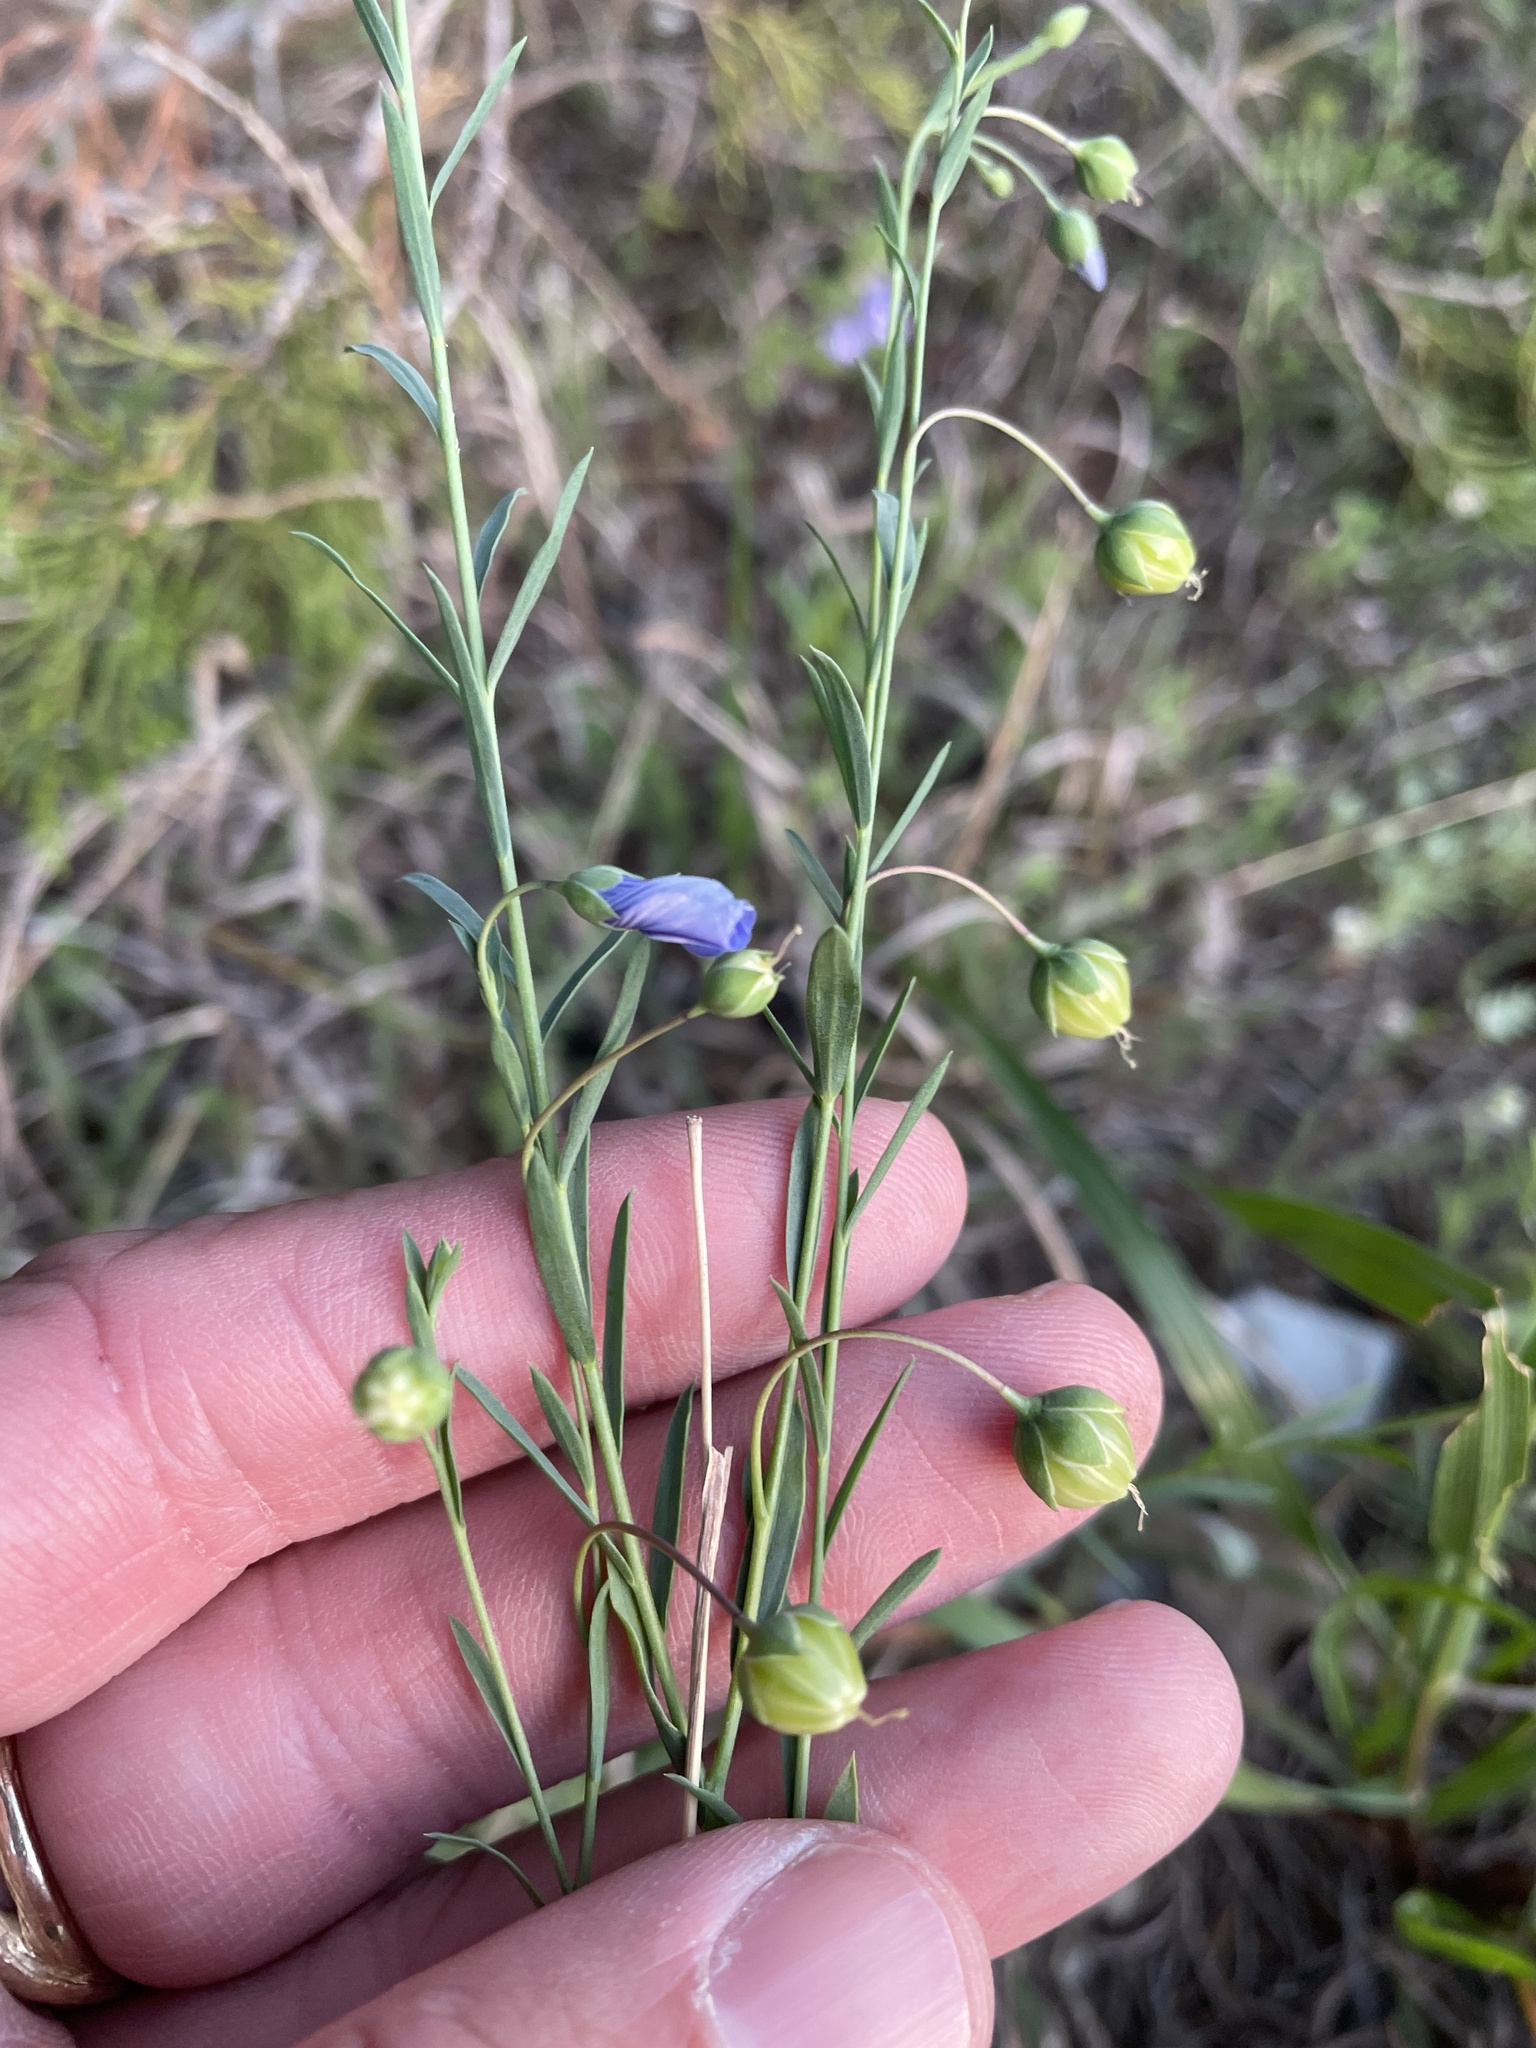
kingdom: Plantae
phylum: Tracheophyta
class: Magnoliopsida
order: Malpighiales
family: Linaceae
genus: Linum
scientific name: Linum pratense
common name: Norton's flax
